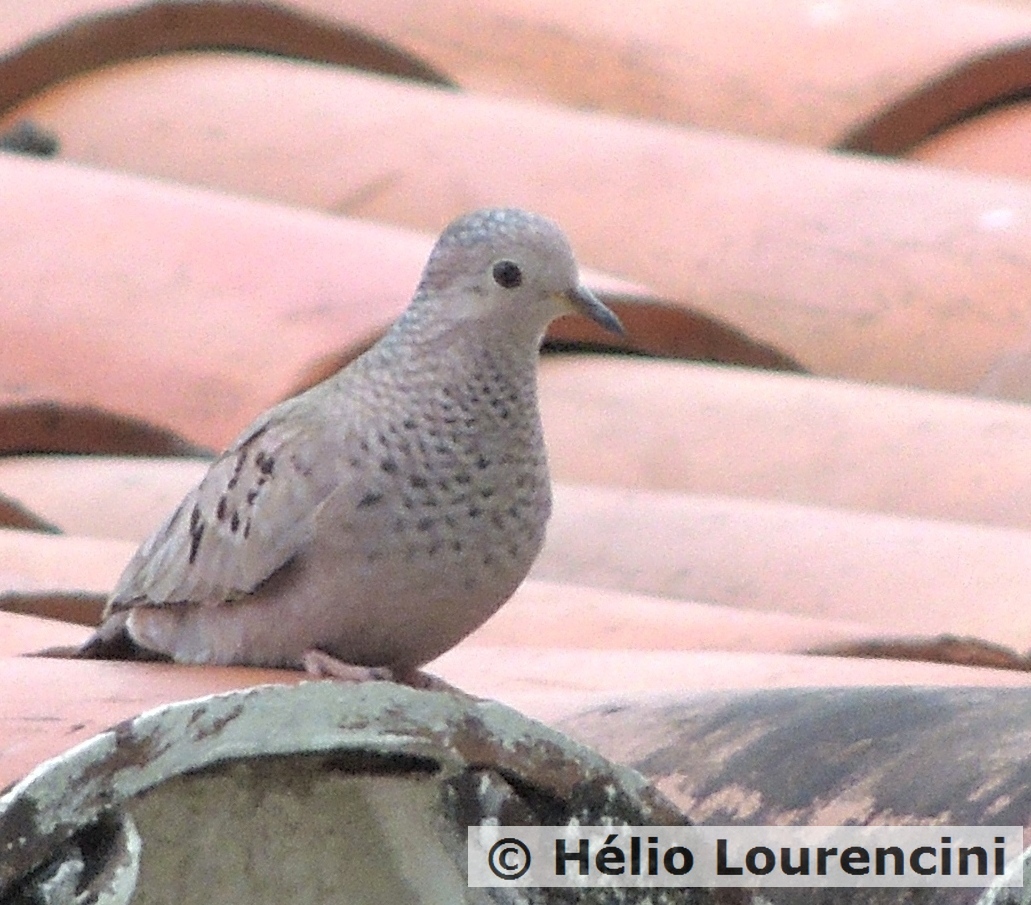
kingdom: Animalia
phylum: Chordata
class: Aves
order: Columbiformes
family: Columbidae
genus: Columbina
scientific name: Columbina passerina
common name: Common ground-dove
